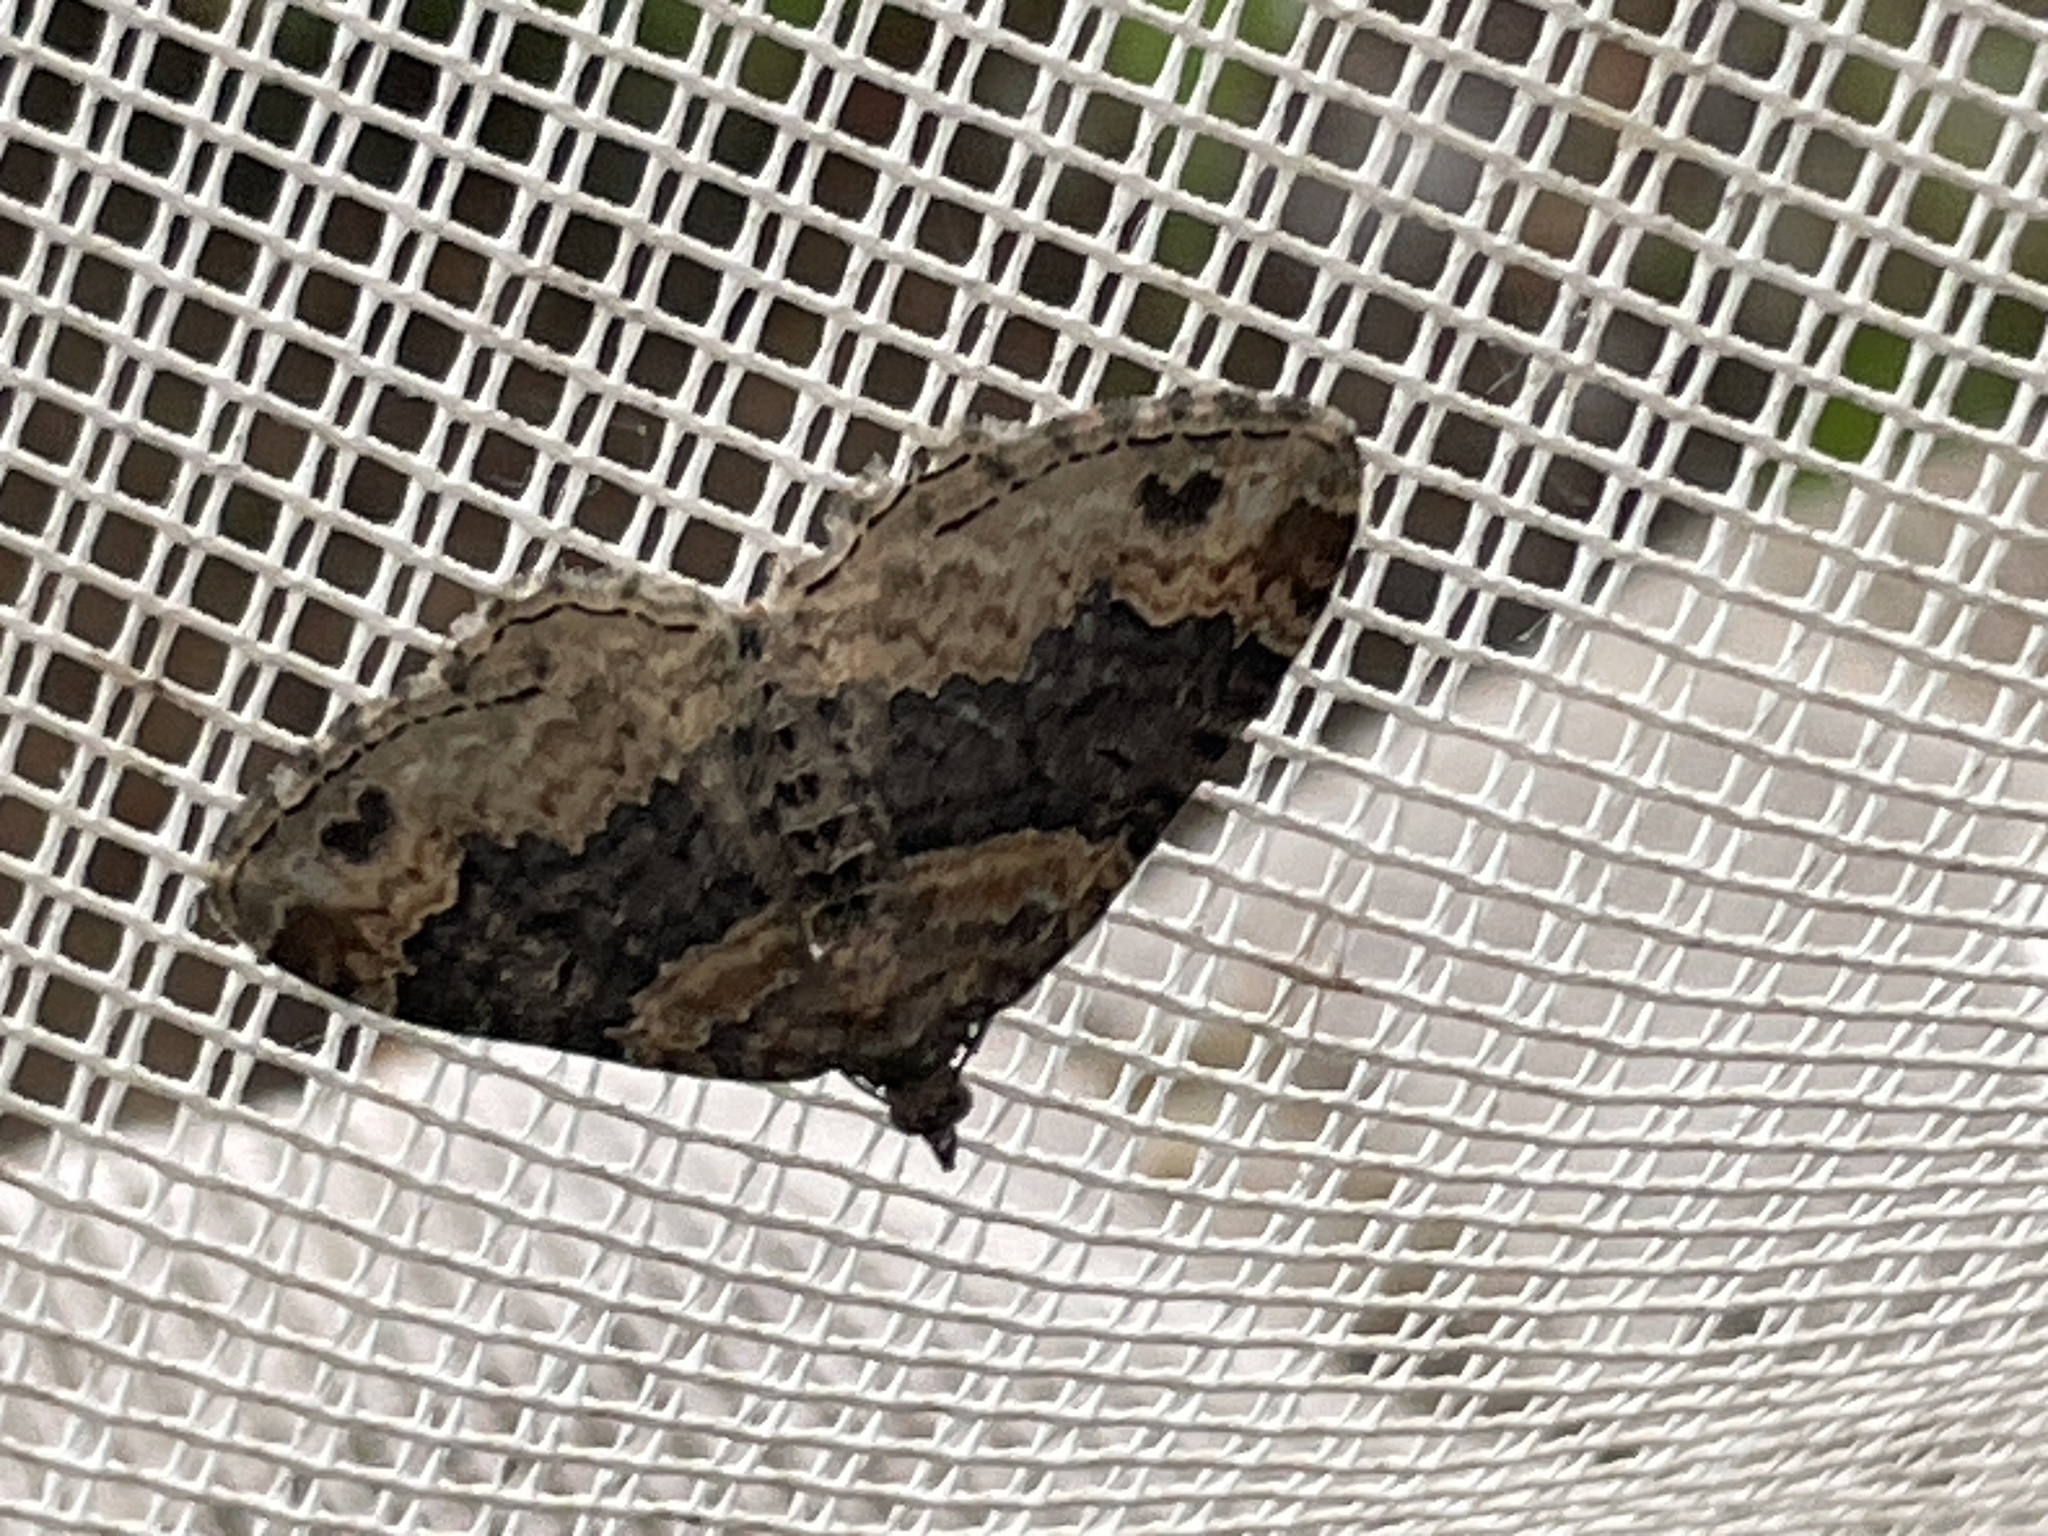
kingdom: Animalia
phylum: Arthropoda
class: Insecta
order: Lepidoptera
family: Geometridae
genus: Xanthorhoe
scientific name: Xanthorhoe ferrugata
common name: Dark-barred twin-spot carpet
